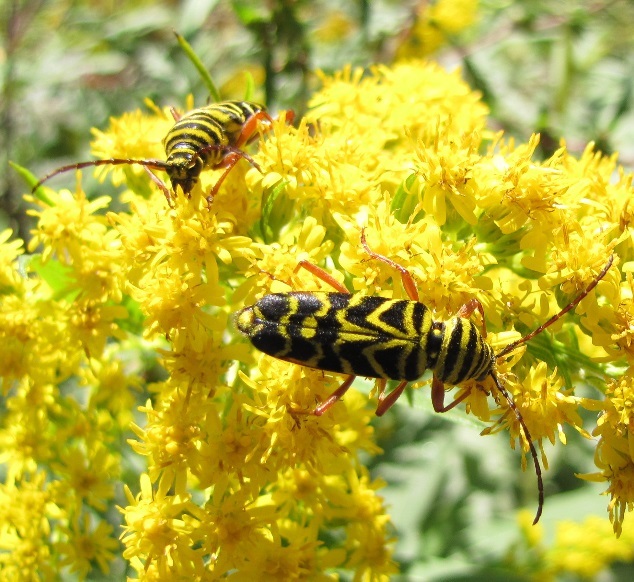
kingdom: Animalia
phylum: Arthropoda
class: Insecta
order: Coleoptera
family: Cerambycidae
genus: Megacyllene
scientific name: Megacyllene robiniae
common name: Locust borer
